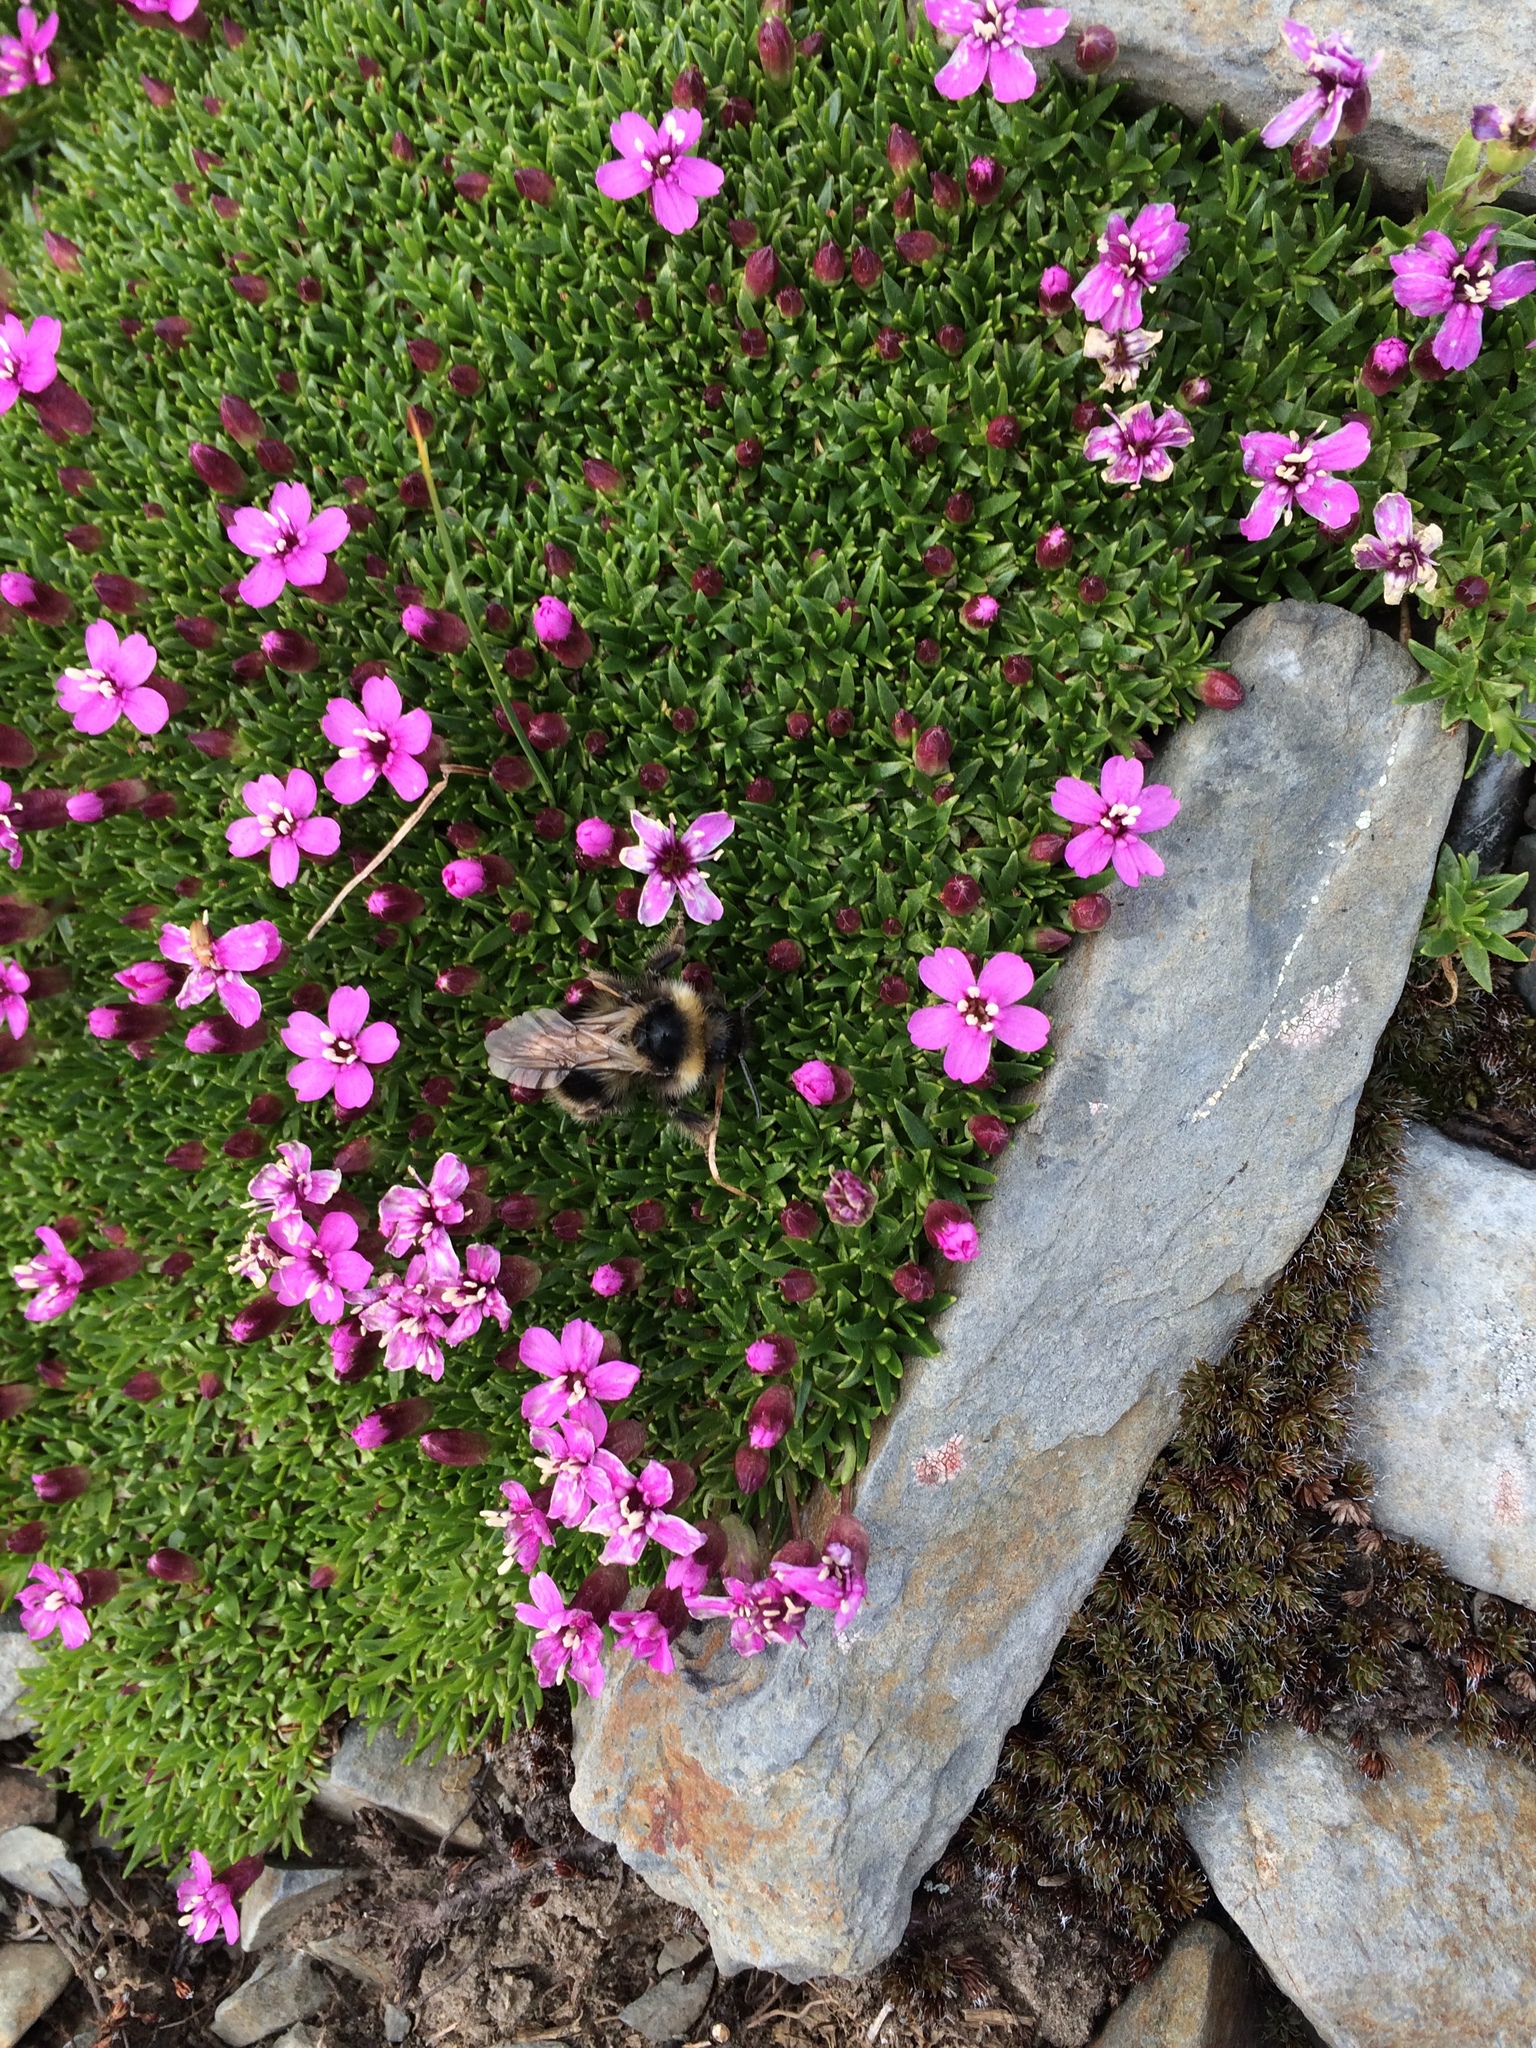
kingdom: Plantae
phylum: Tracheophyta
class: Magnoliopsida
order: Caryophyllales
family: Caryophyllaceae
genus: Silene
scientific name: Silene acaulis
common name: Moss campion
